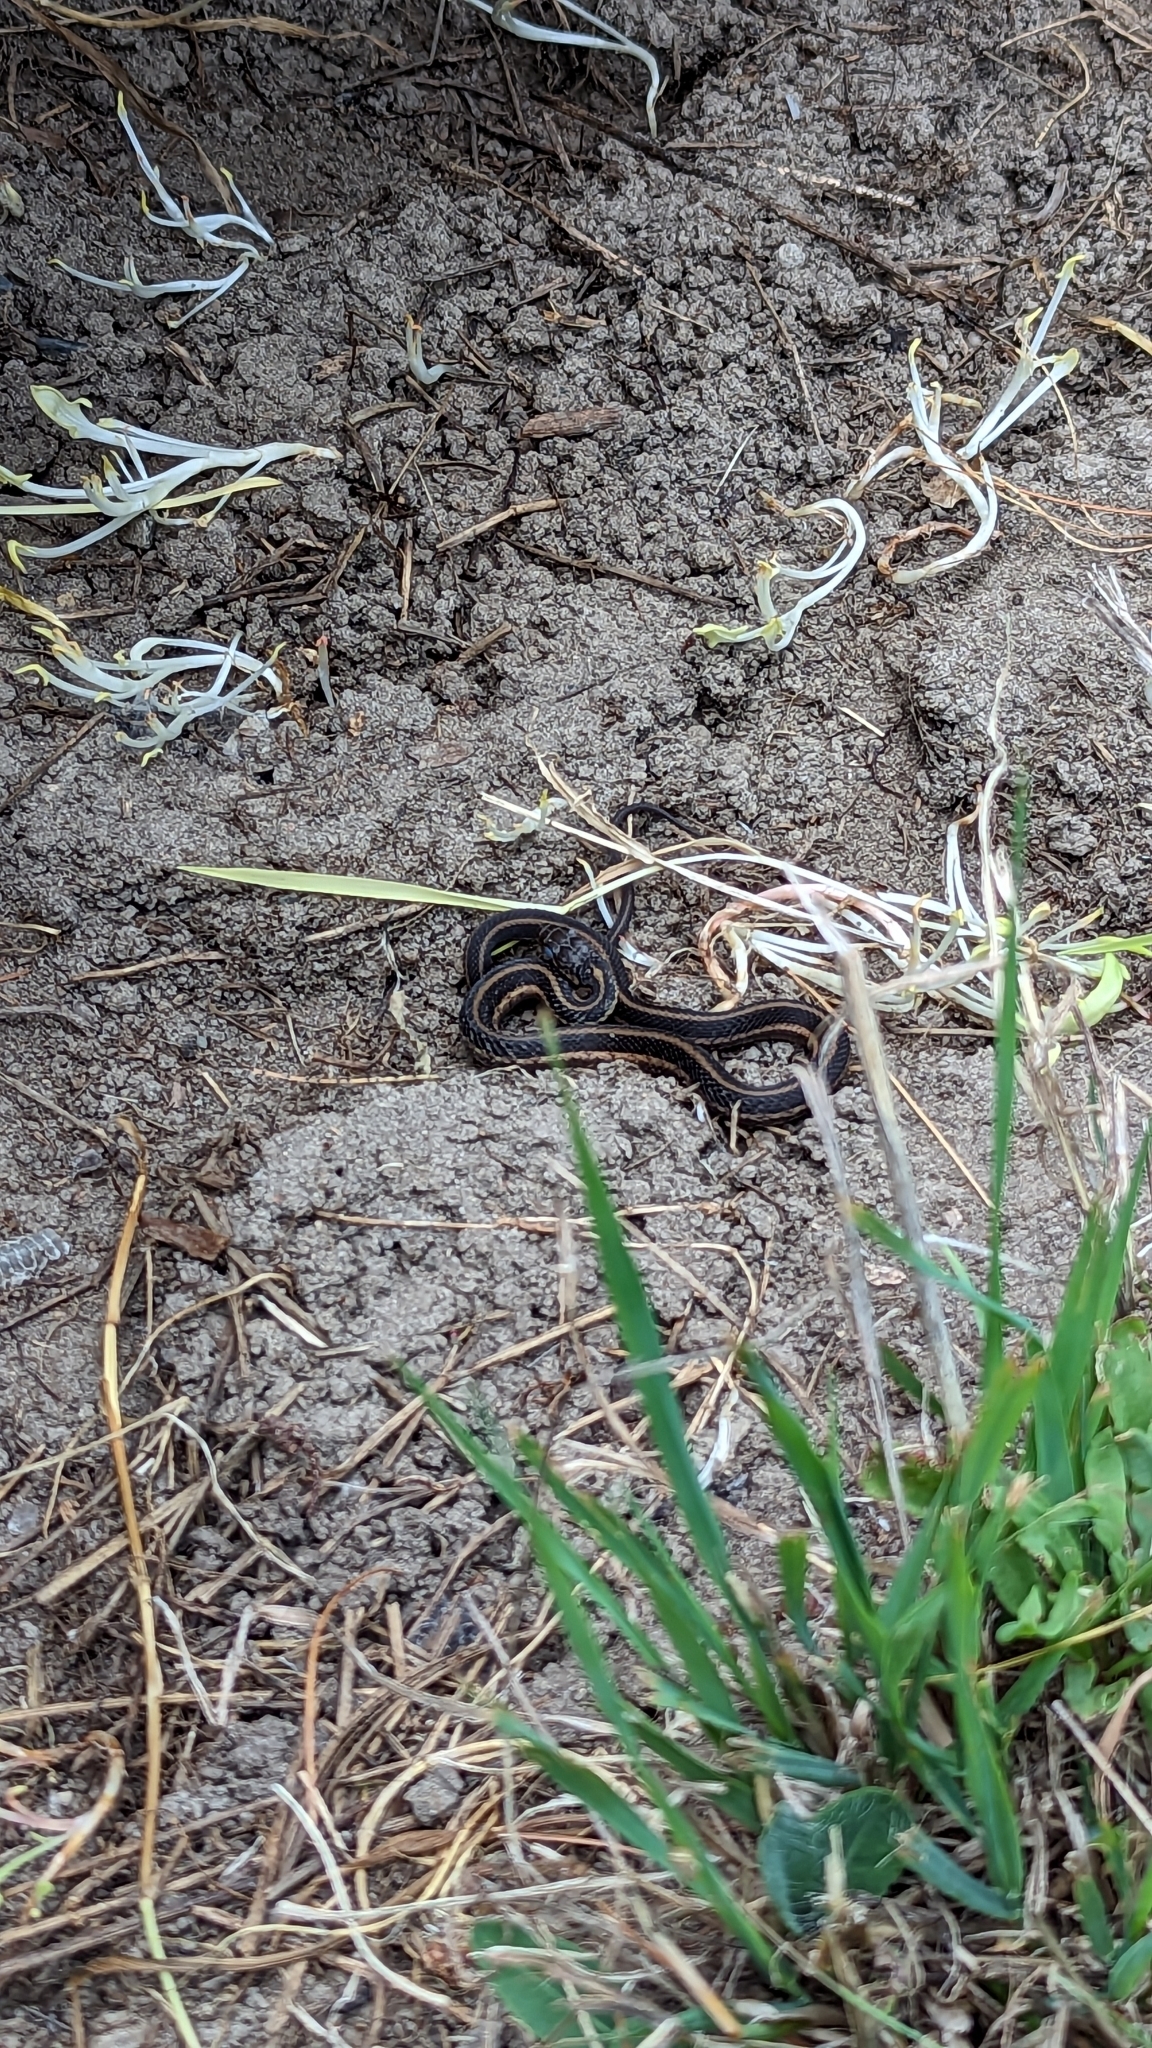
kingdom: Animalia
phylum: Chordata
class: Squamata
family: Colubridae
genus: Thamnophis
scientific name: Thamnophis sirtalis
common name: Common garter snake
